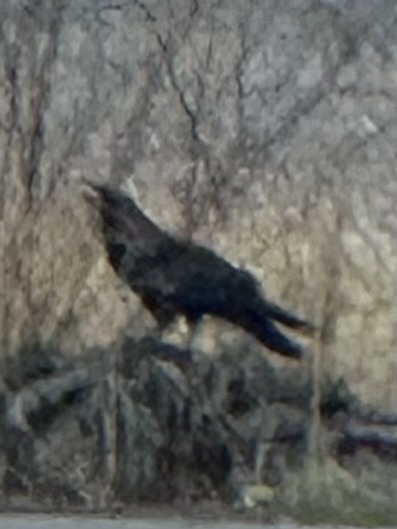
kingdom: Animalia
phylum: Chordata
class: Aves
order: Passeriformes
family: Corvidae
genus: Corvus
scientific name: Corvus corax
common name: Common raven
